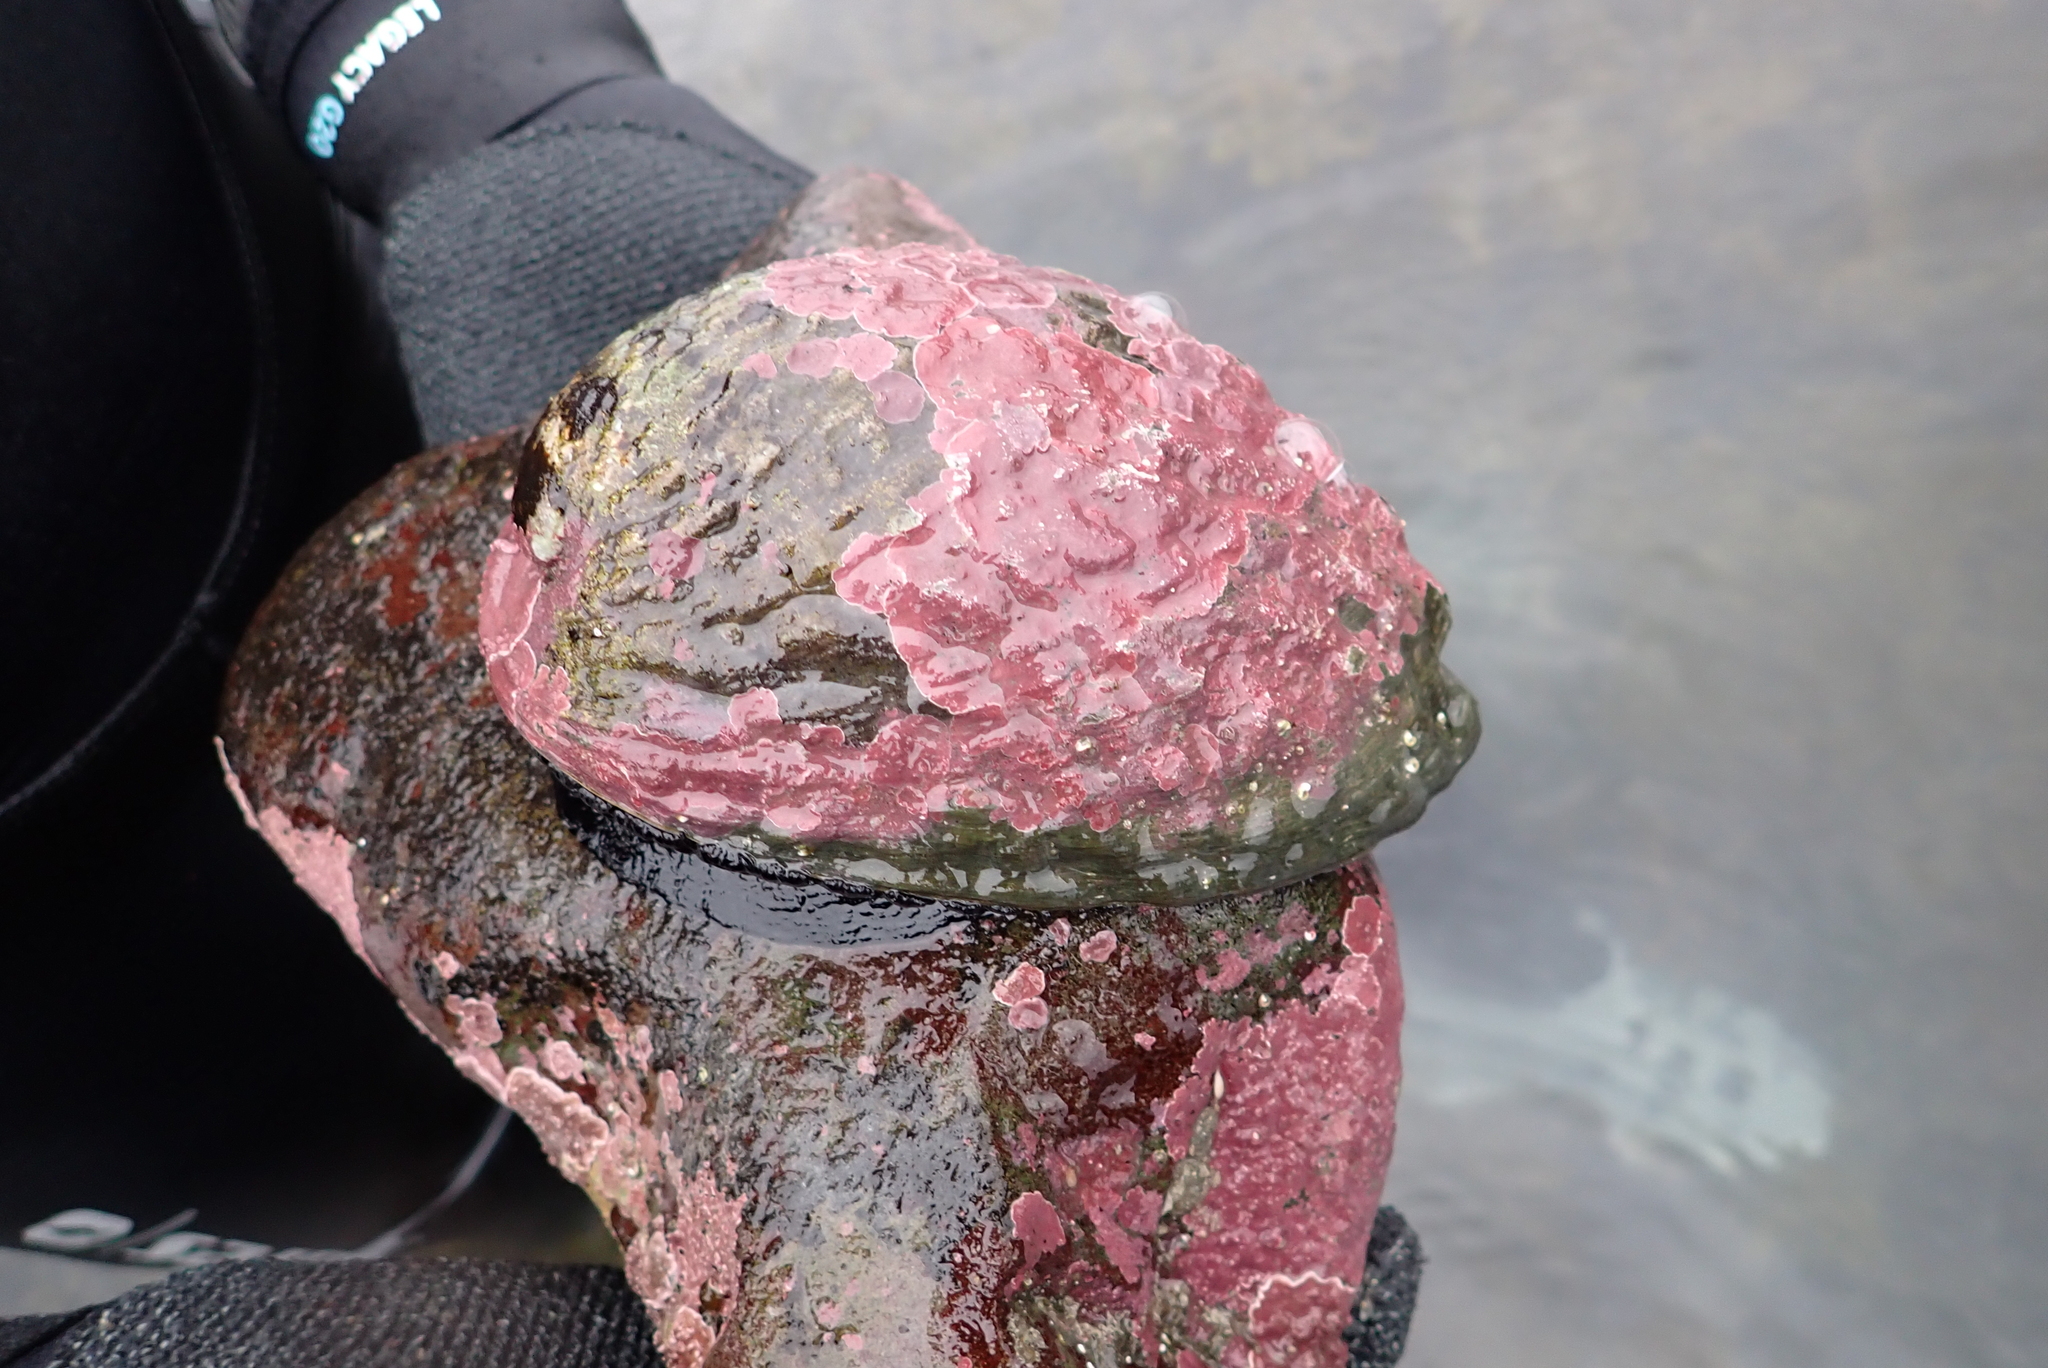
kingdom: Animalia
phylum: Mollusca
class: Gastropoda
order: Lepetellida
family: Haliotidae
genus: Haliotis
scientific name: Haliotis iris
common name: Abalone
